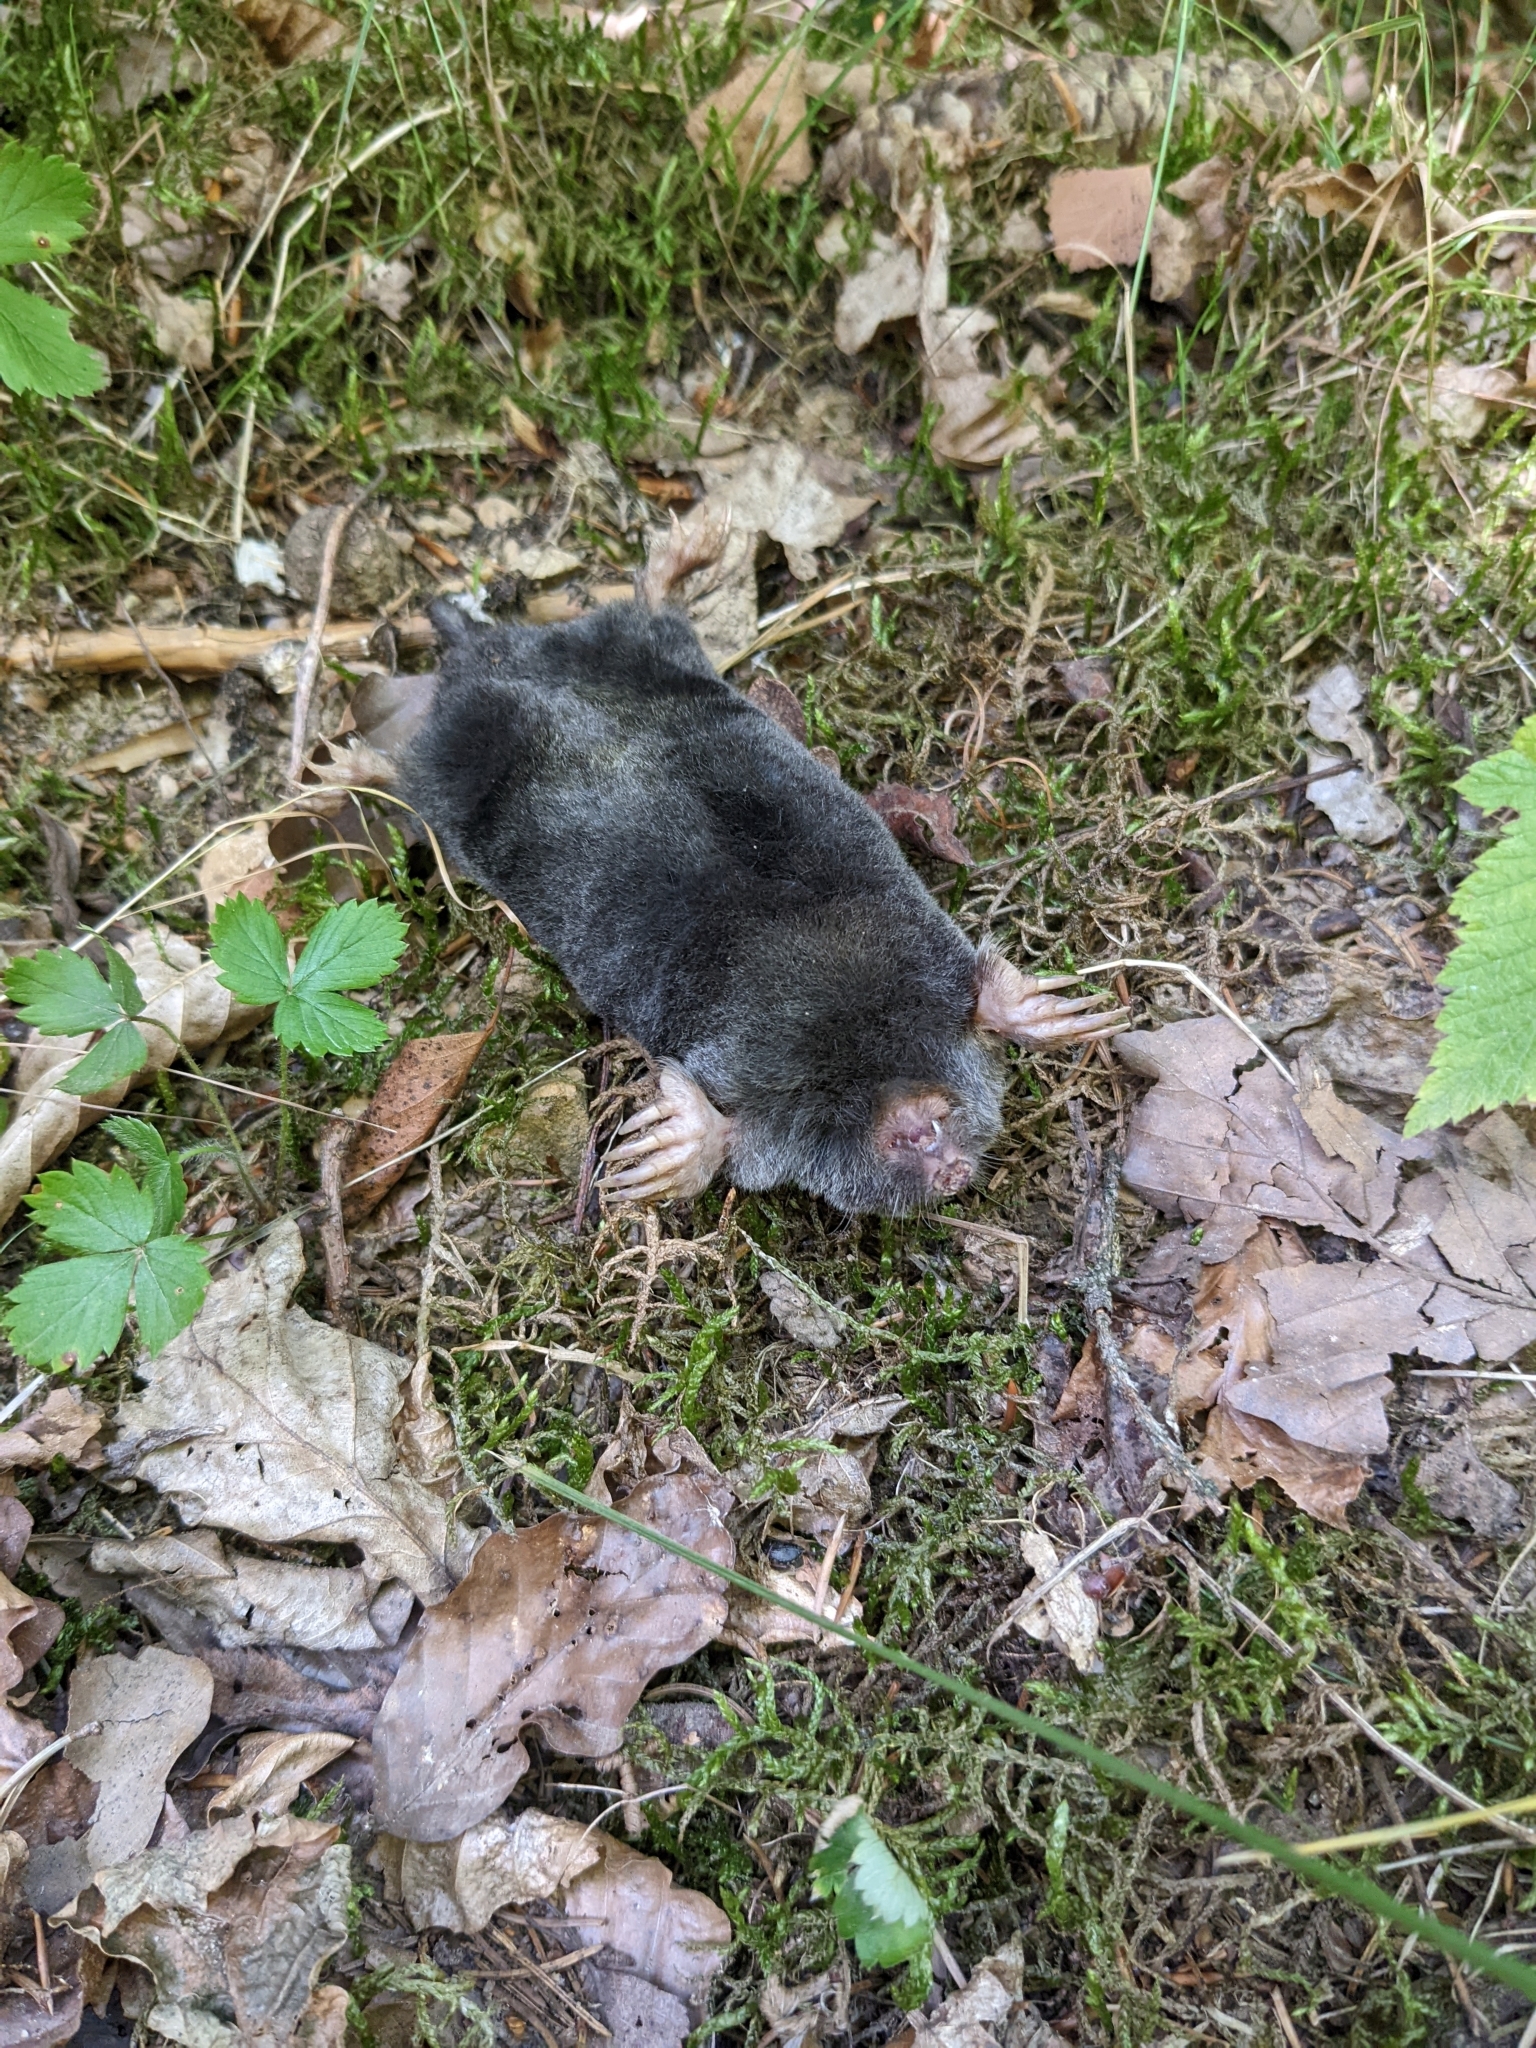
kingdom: Animalia
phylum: Chordata
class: Mammalia
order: Soricomorpha
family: Talpidae
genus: Talpa
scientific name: Talpa europaea
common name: European mole
